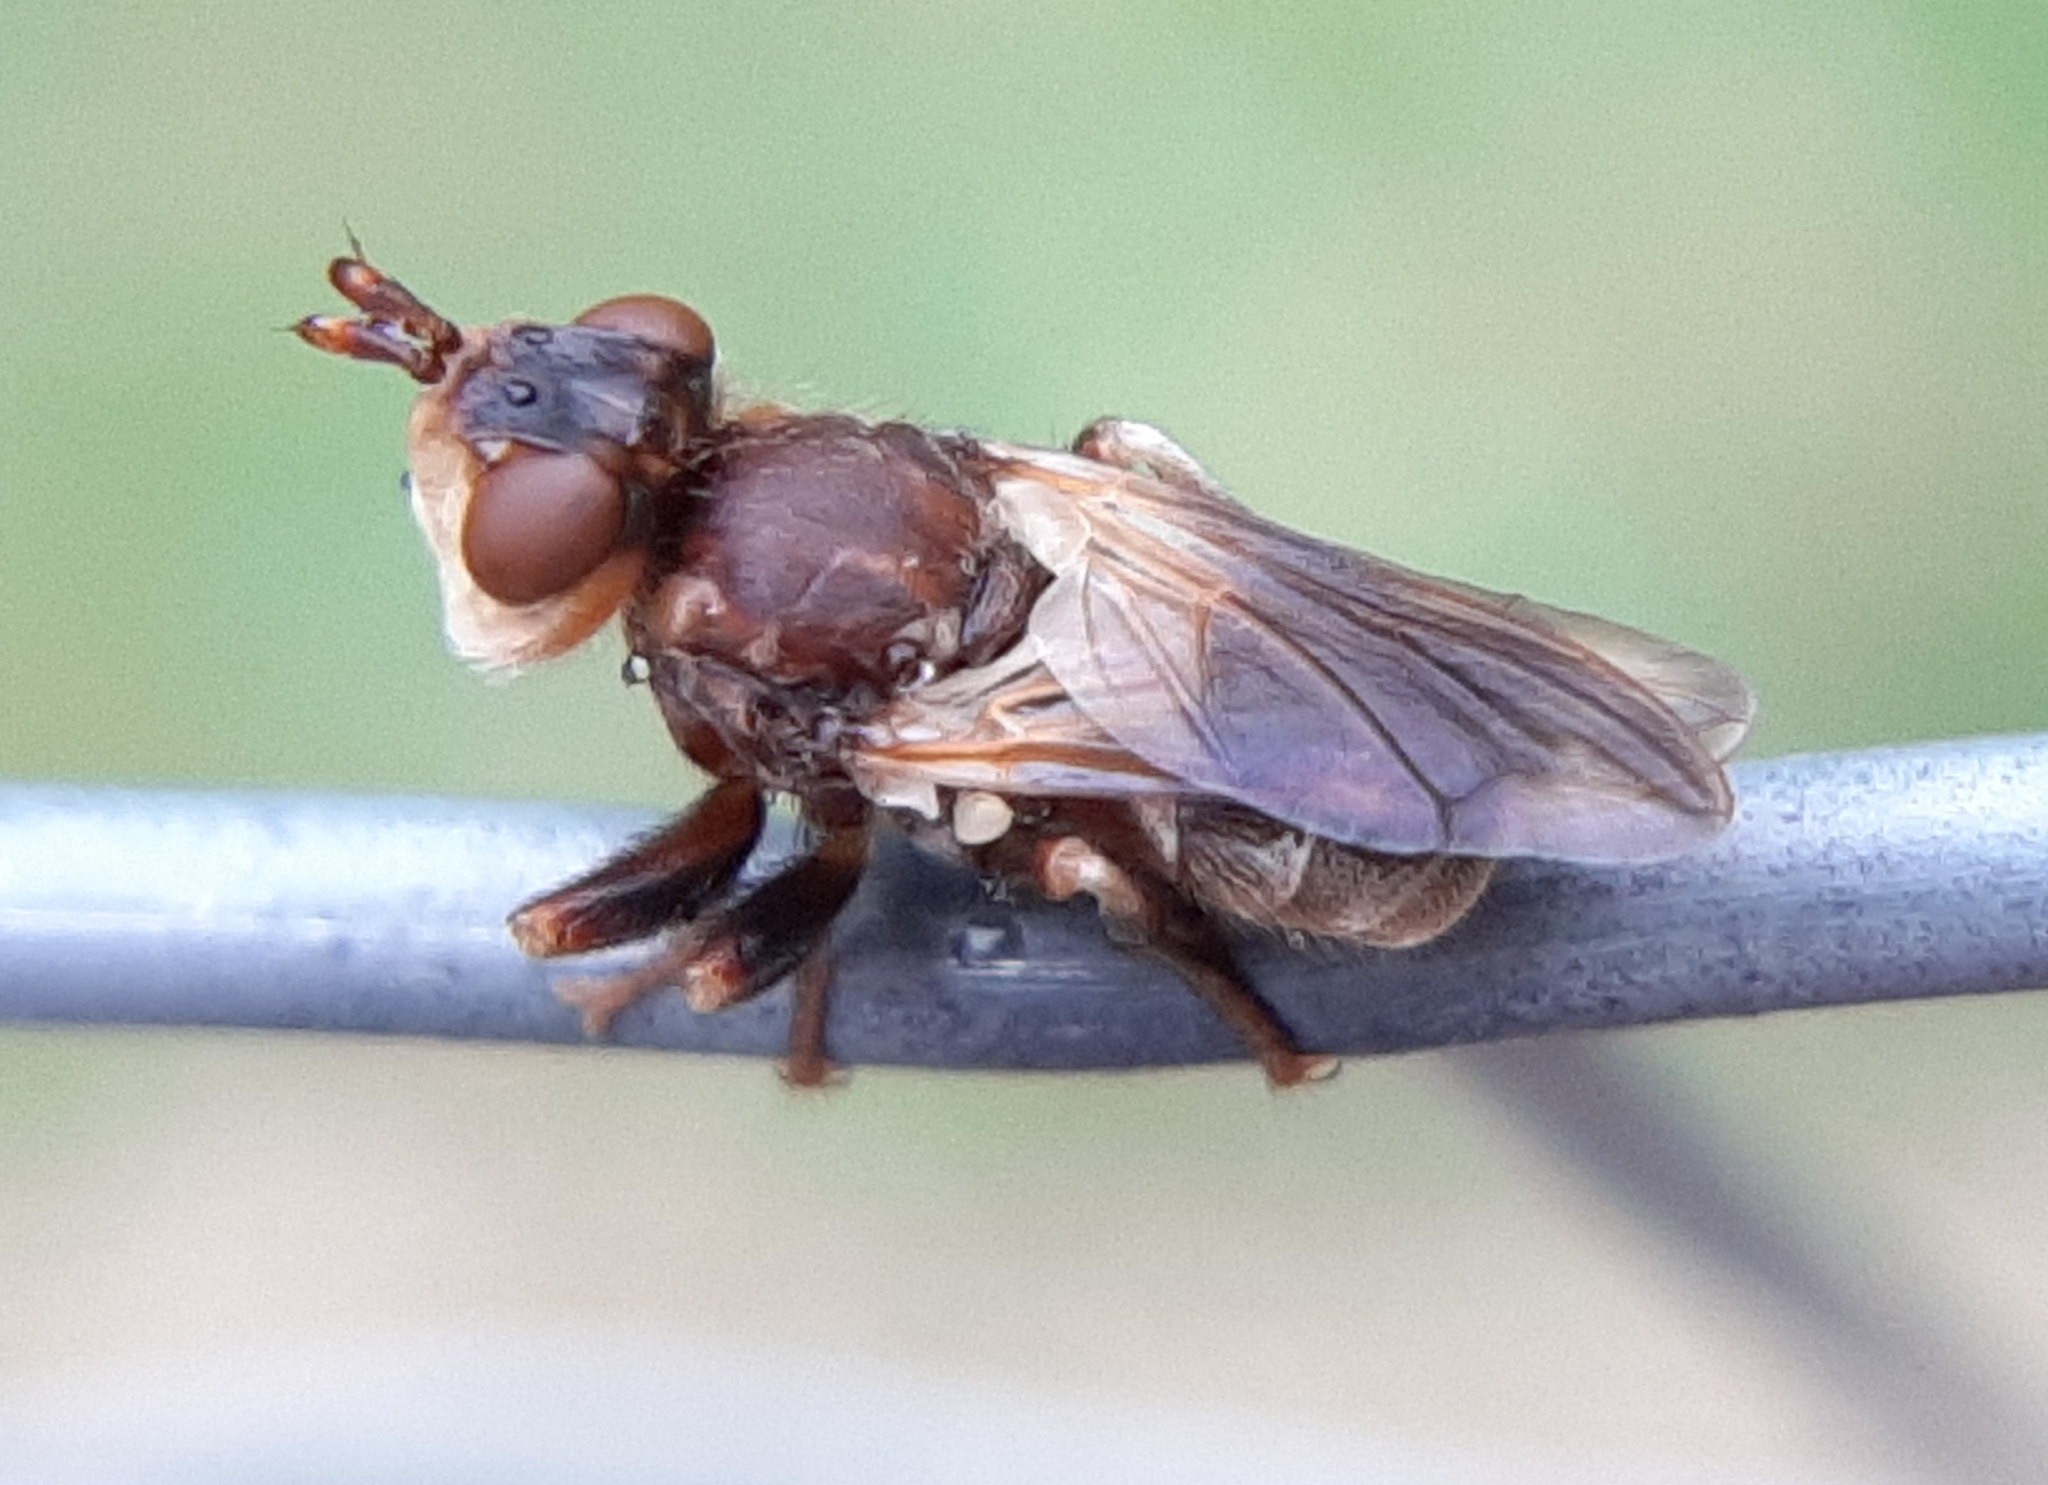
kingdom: Animalia
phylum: Arthropoda
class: Insecta
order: Diptera
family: Conopidae
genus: Myopa
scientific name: Myopa vesiculosa
